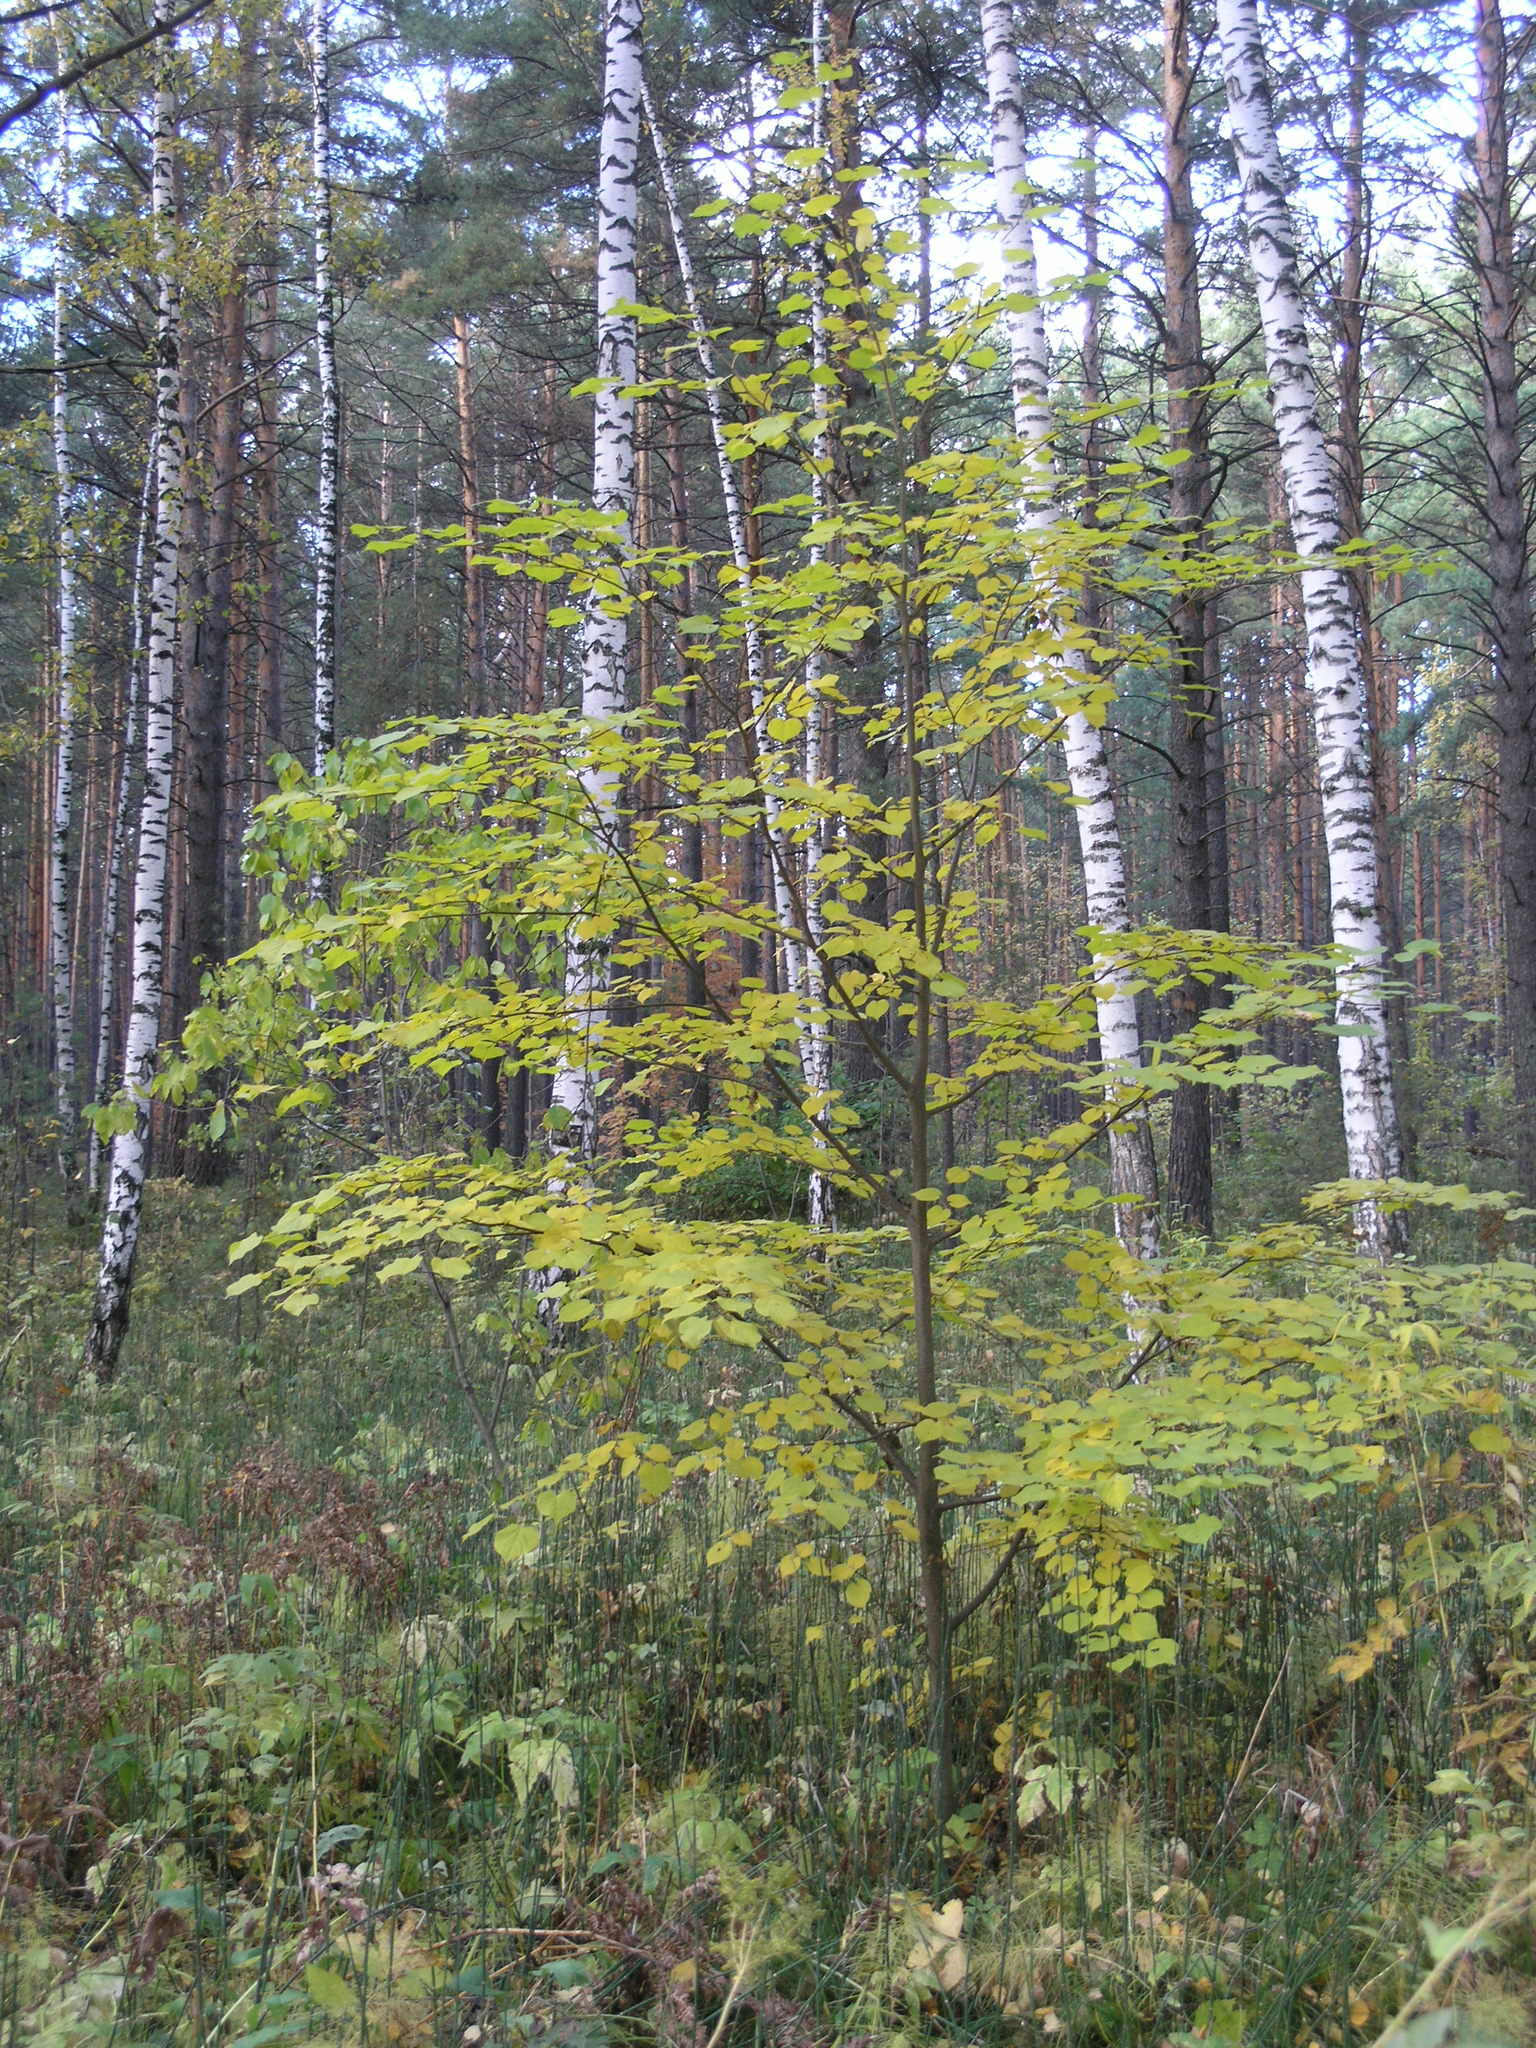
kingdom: Plantae
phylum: Tracheophyta
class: Magnoliopsida
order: Malvales
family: Malvaceae
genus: Tilia
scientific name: Tilia cordata
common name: Small-leaved lime
